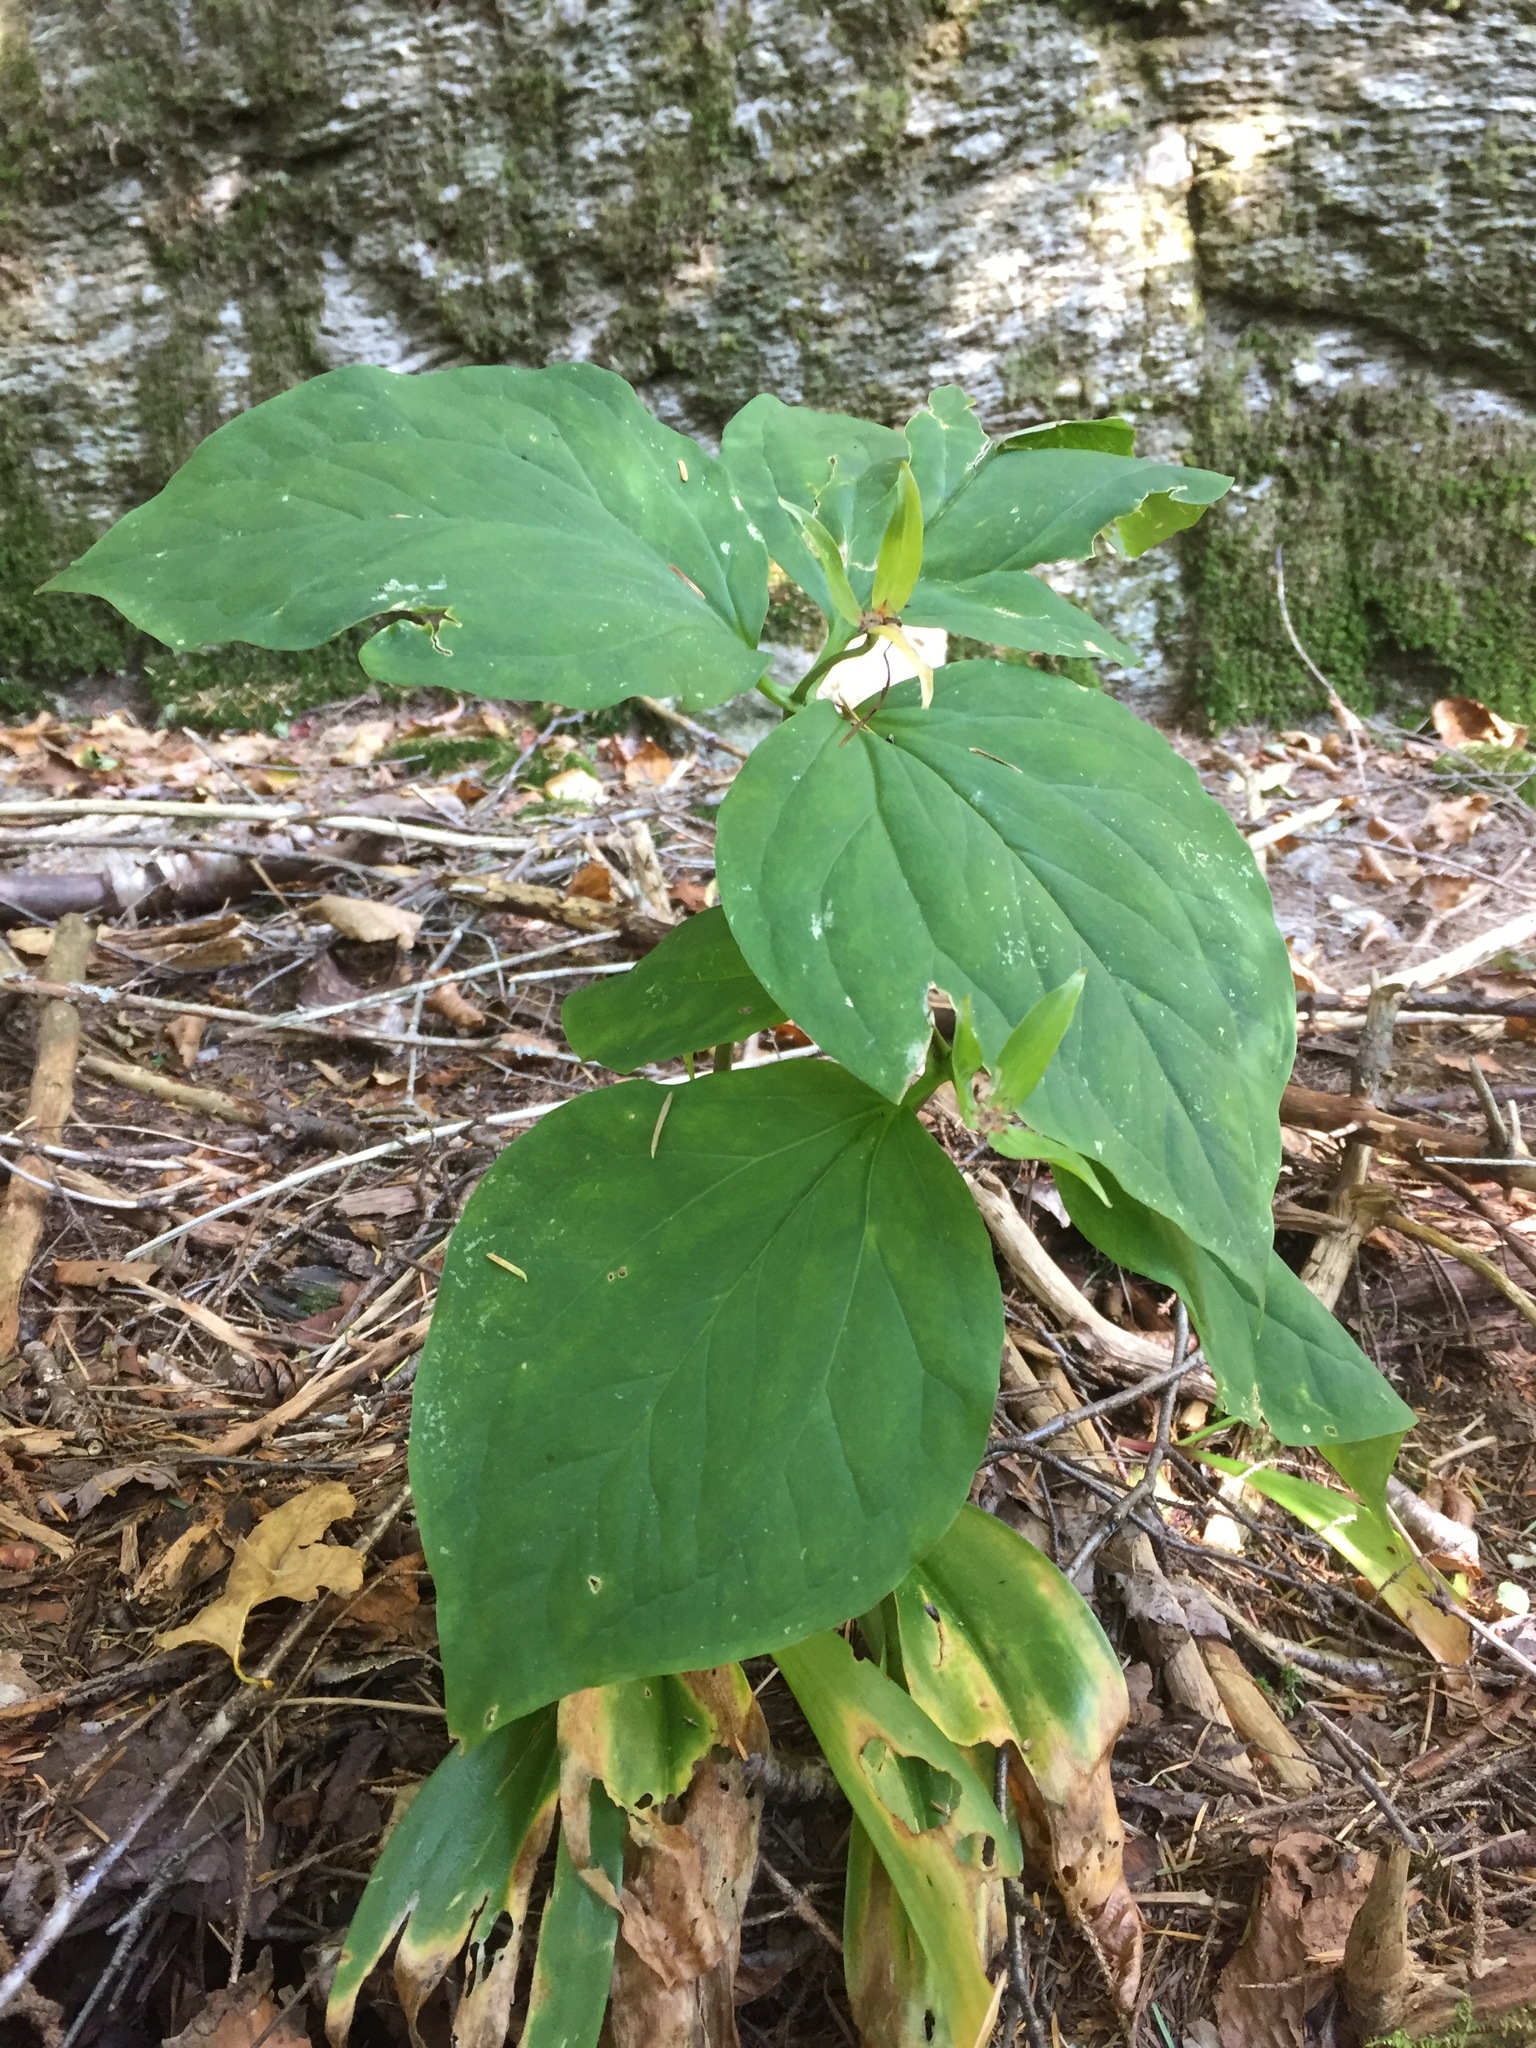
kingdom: Plantae
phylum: Tracheophyta
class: Liliopsida
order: Liliales
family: Melanthiaceae
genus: Trillium
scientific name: Trillium undulatum
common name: Paint trillium
